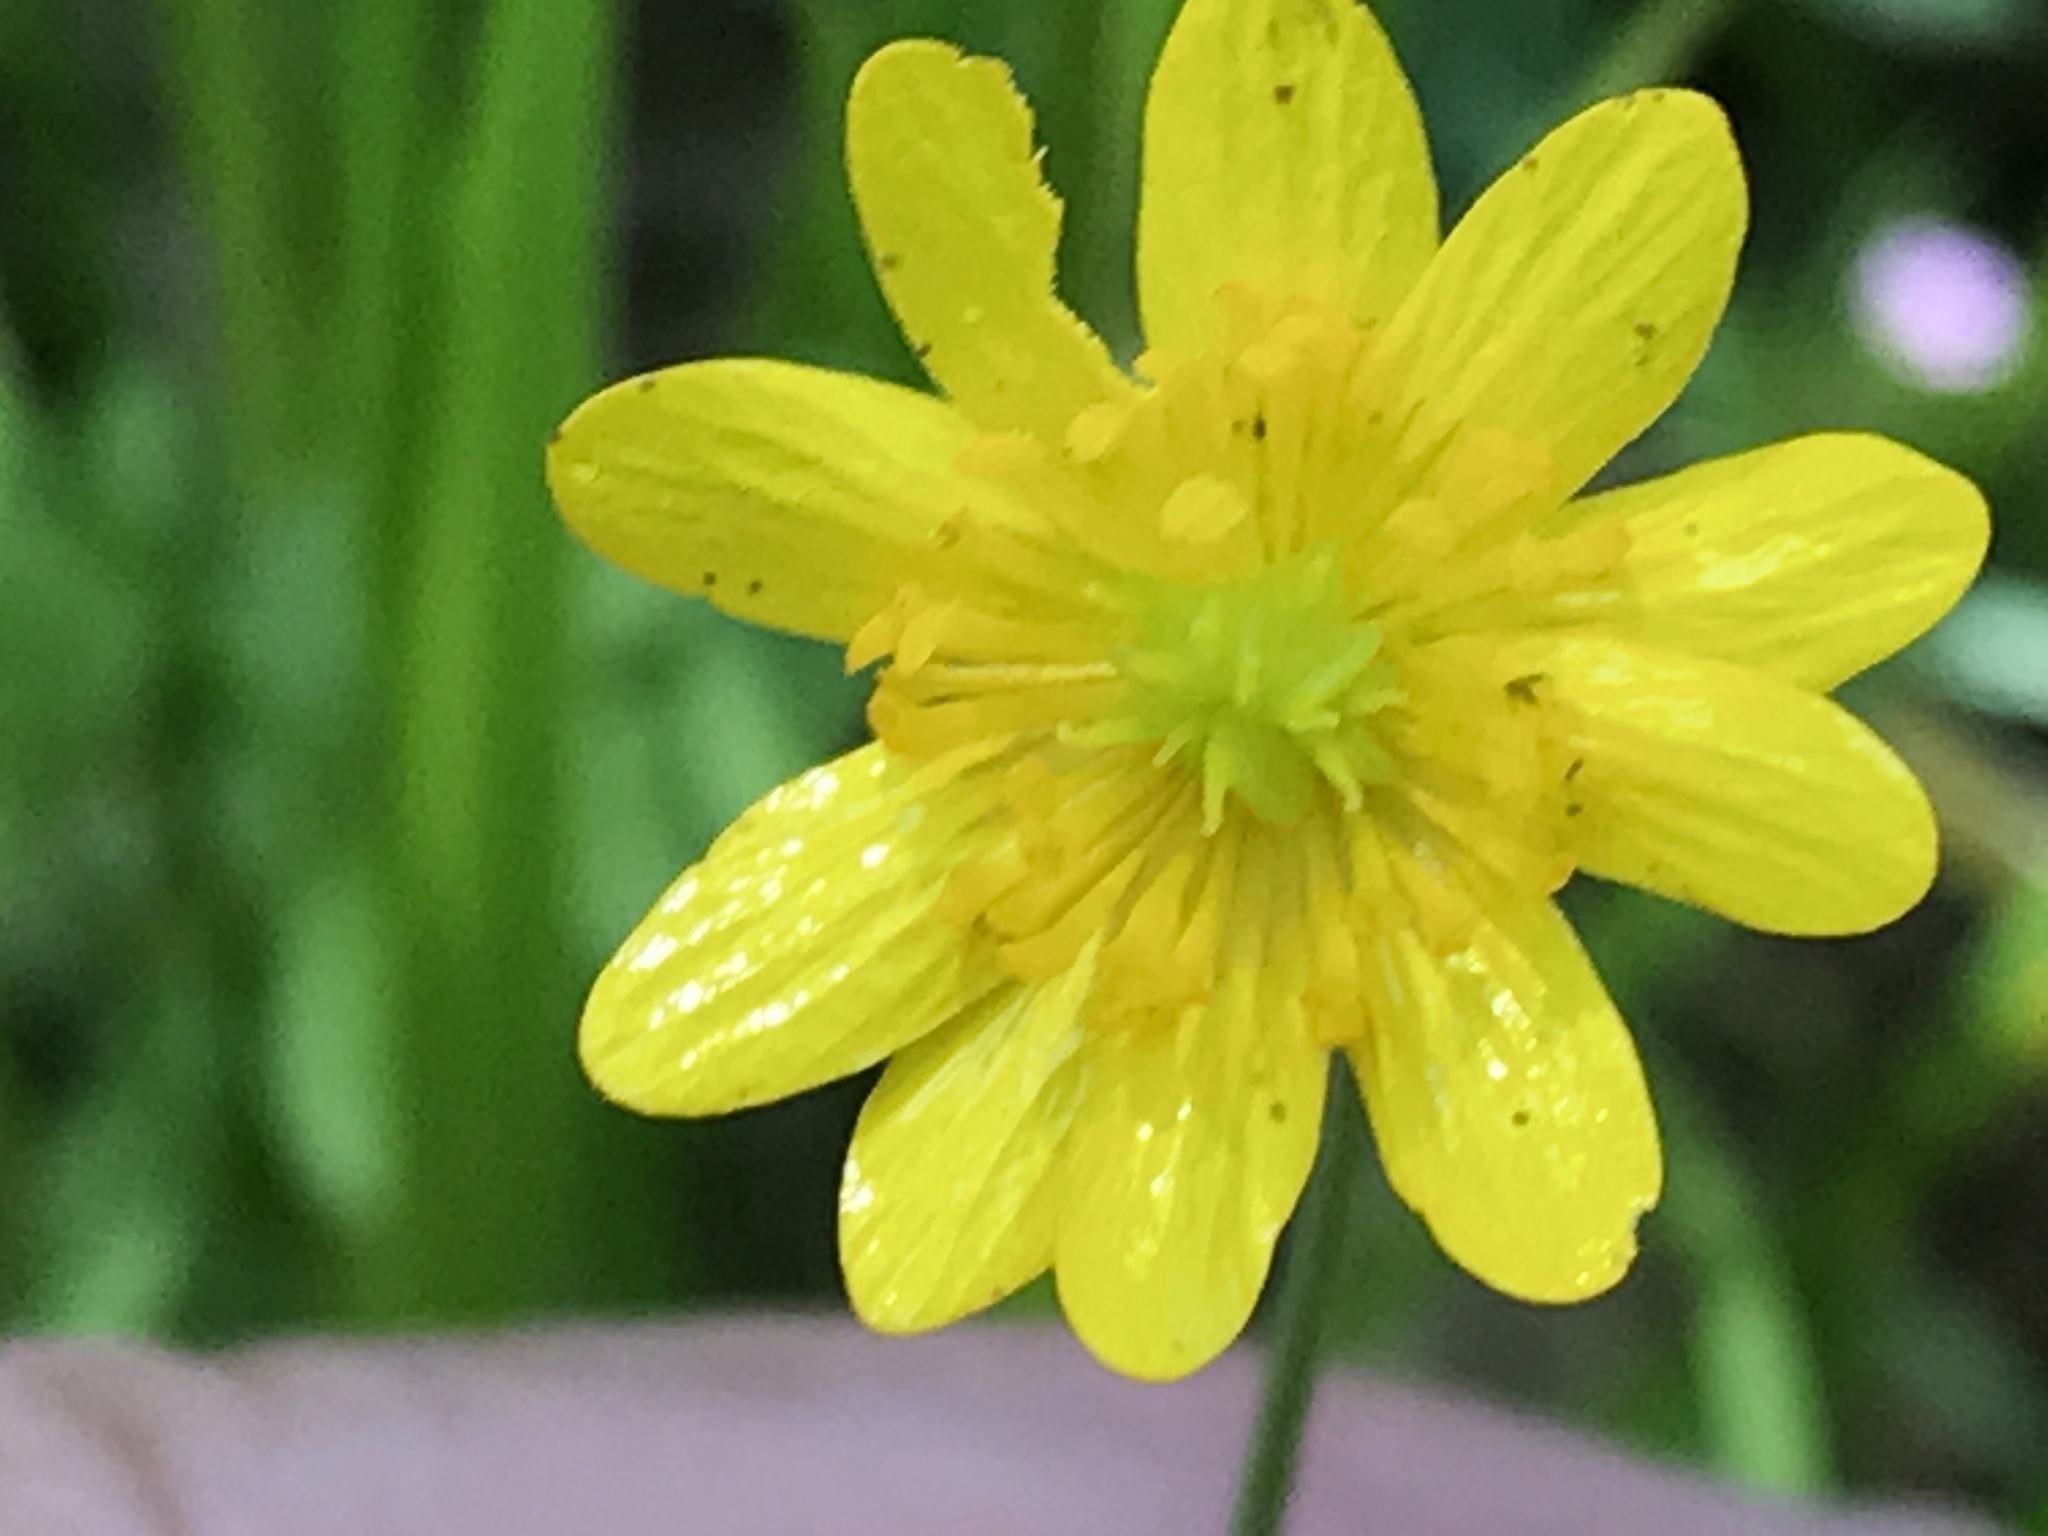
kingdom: Plantae
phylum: Tracheophyta
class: Magnoliopsida
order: Ranunculales
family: Ranunculaceae
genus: Ranunculus
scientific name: Ranunculus californicus
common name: California buttercup
